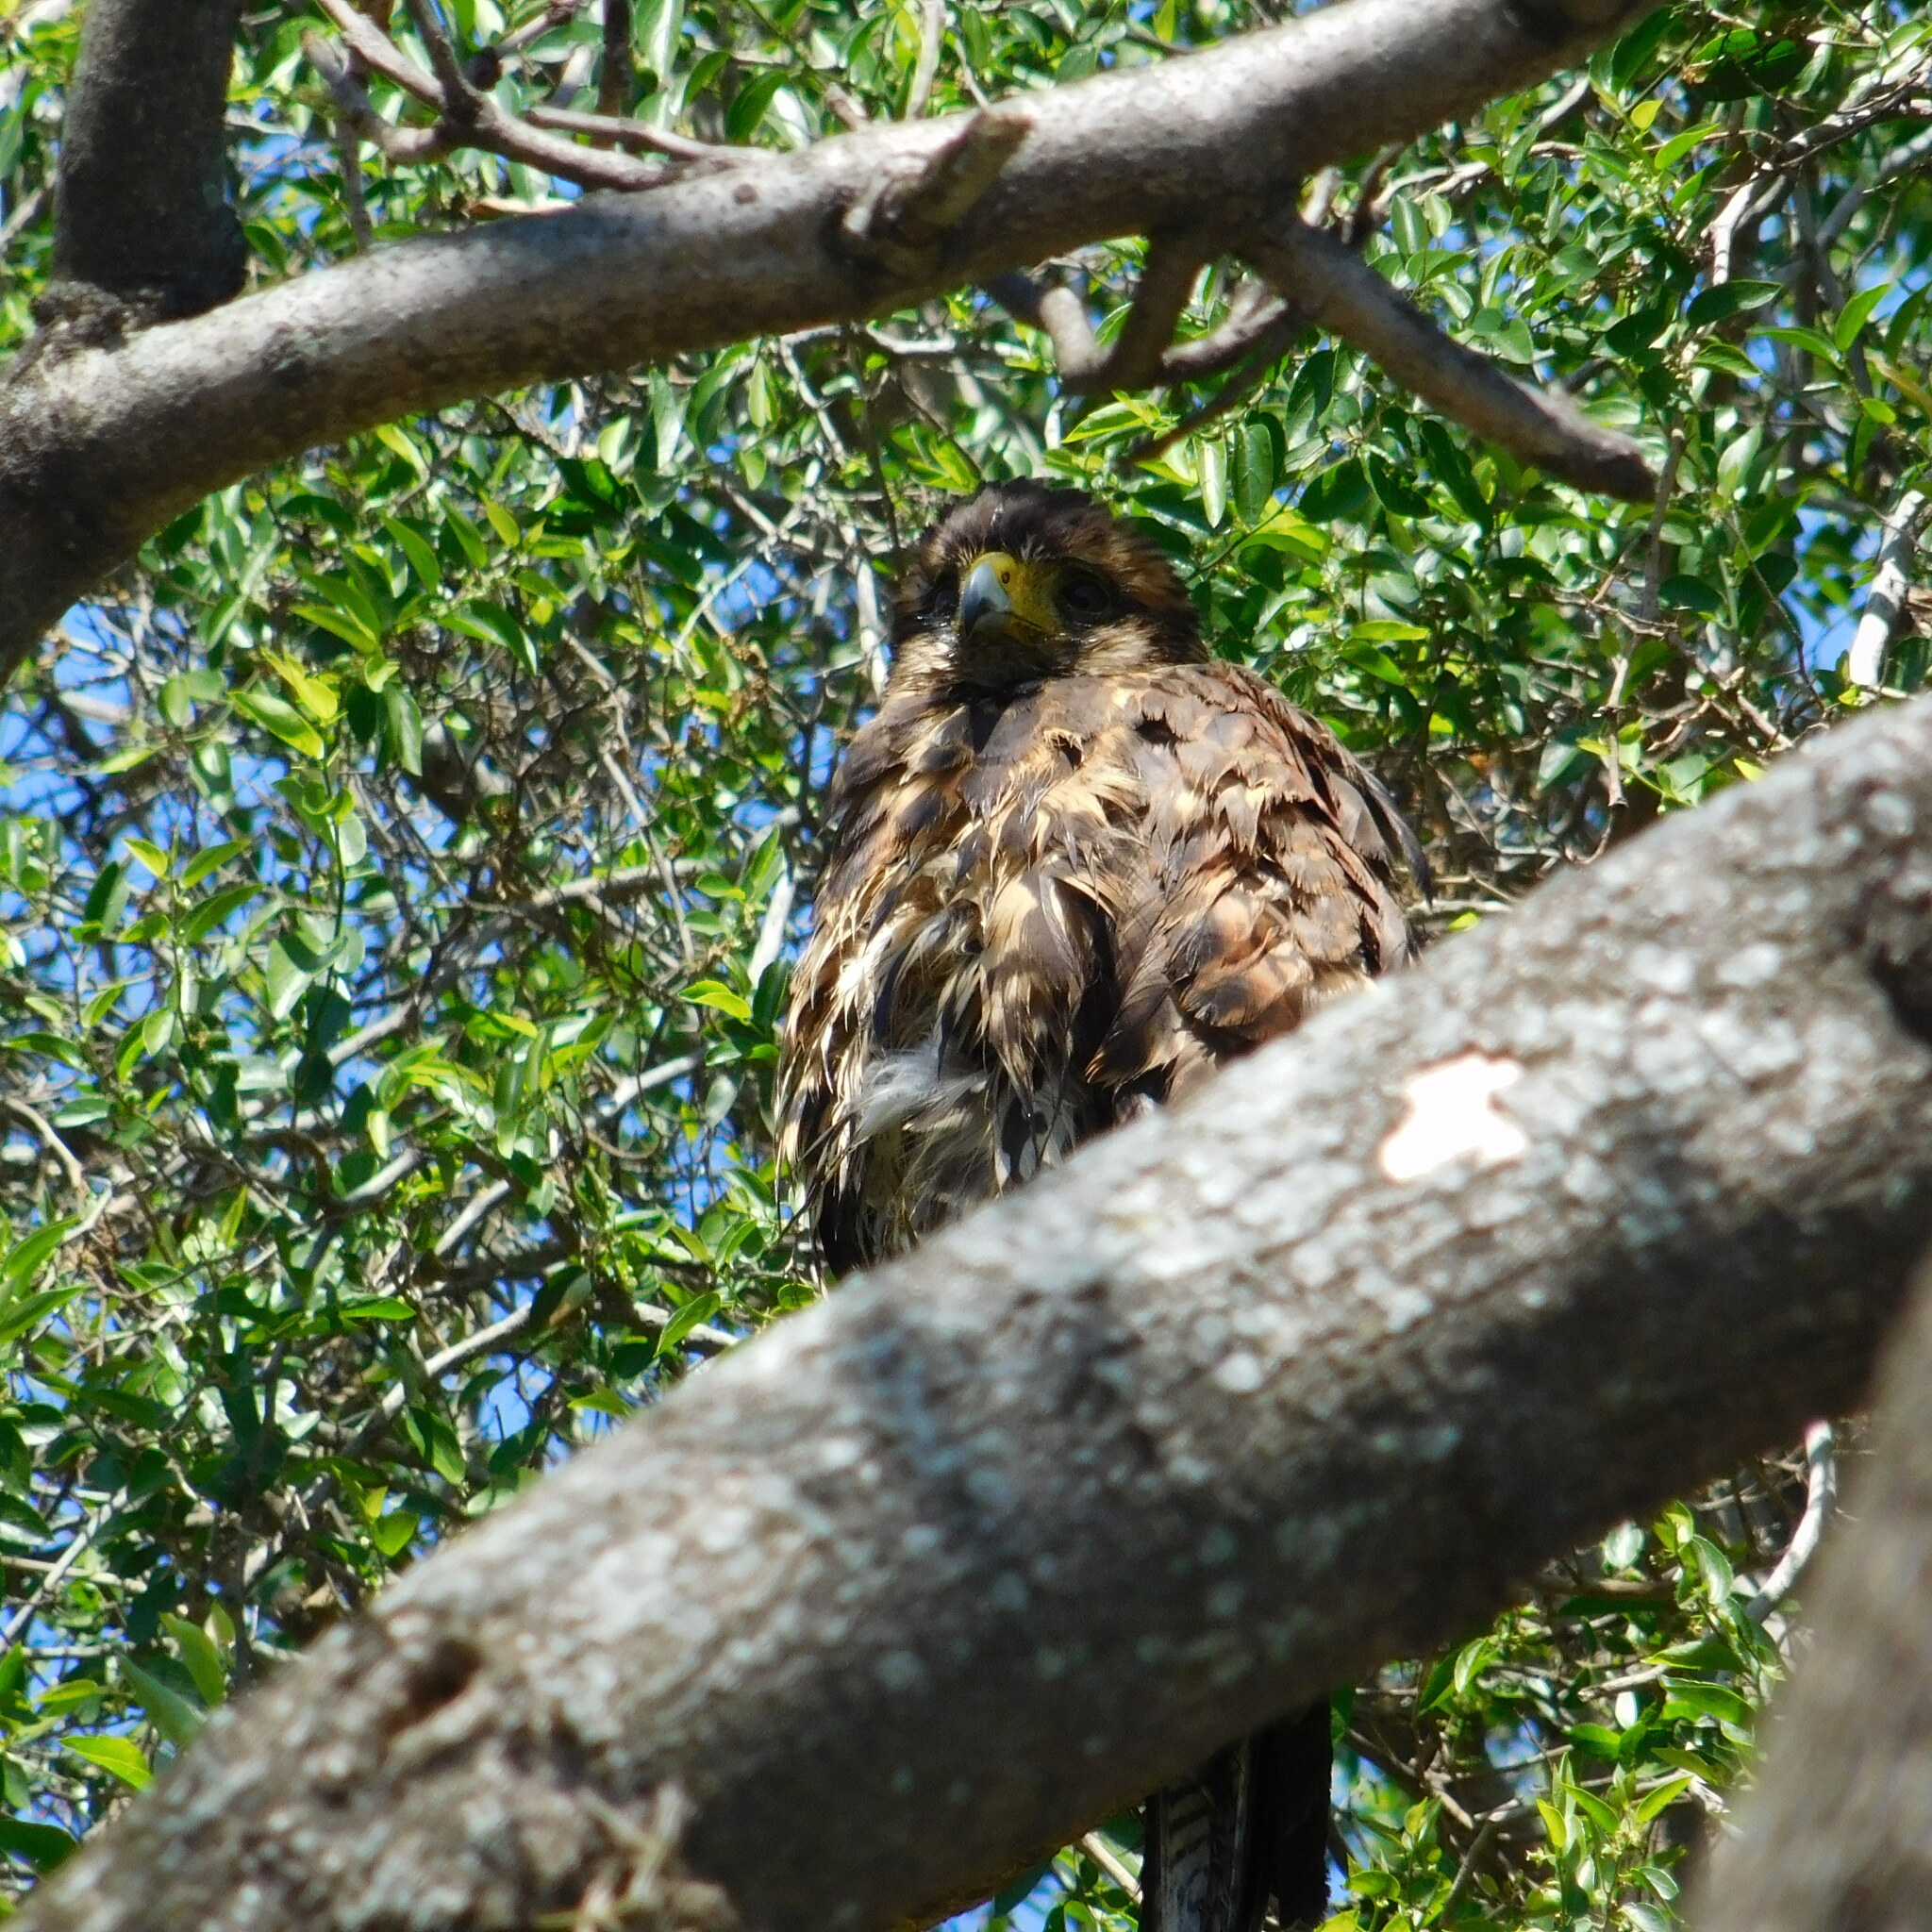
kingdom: Animalia
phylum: Chordata
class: Aves
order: Accipitriformes
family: Accipitridae
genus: Parabuteo
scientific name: Parabuteo unicinctus
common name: Harris's hawk
